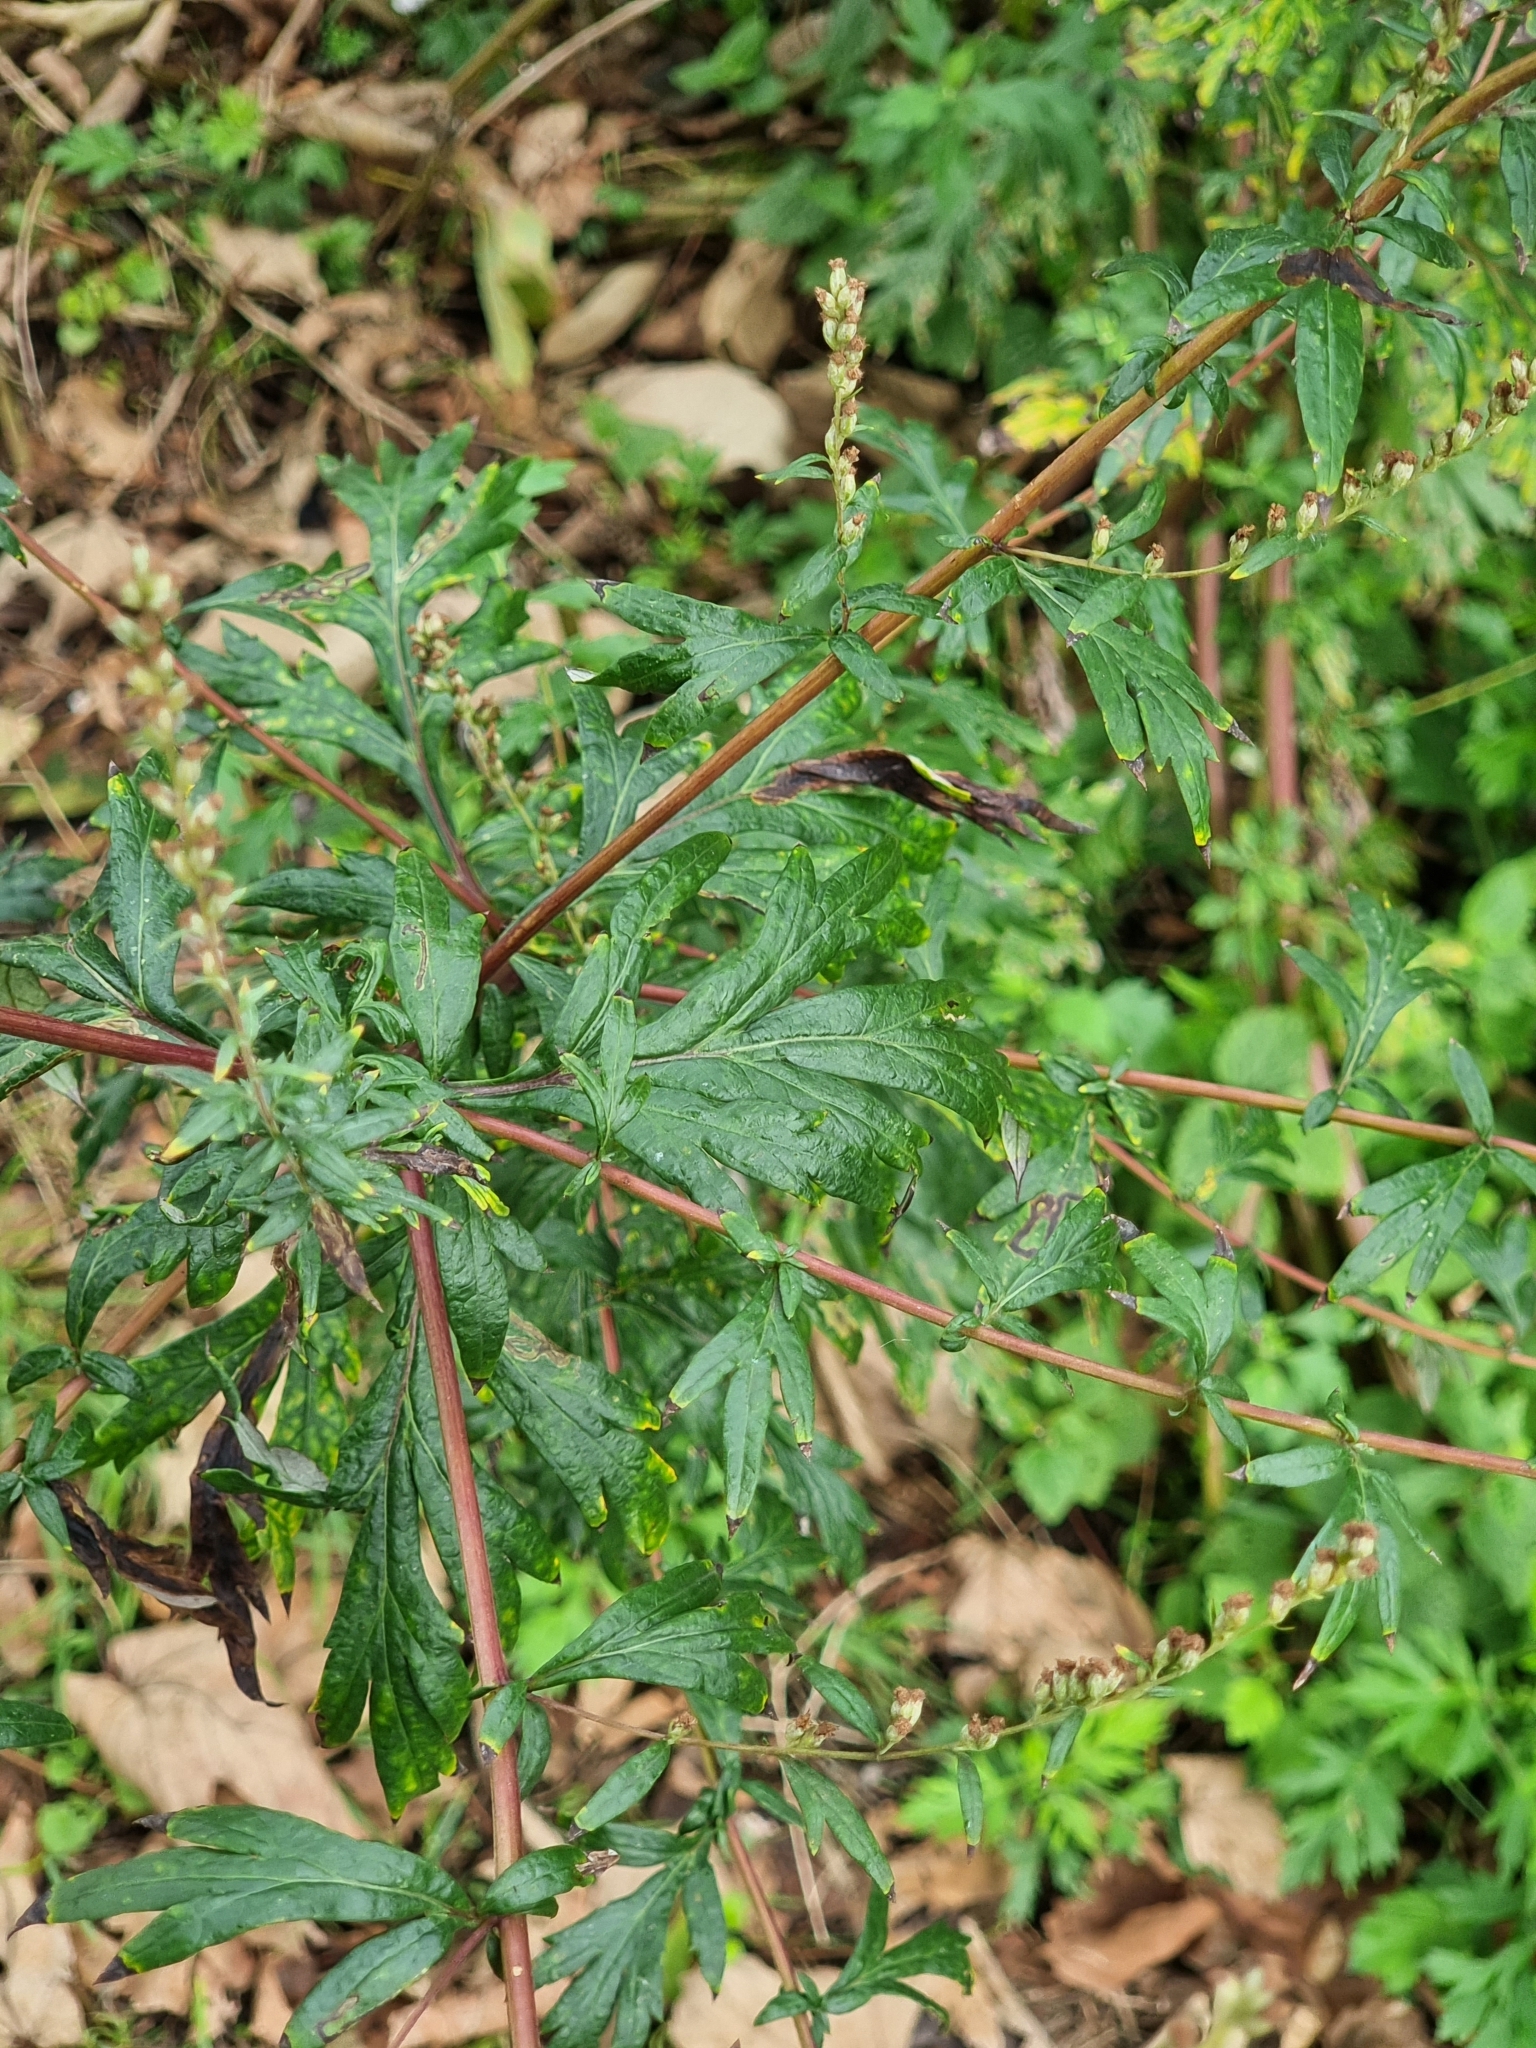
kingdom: Plantae
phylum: Tracheophyta
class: Magnoliopsida
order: Asterales
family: Asteraceae
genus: Artemisia
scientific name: Artemisia vulgaris
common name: Mugwort
